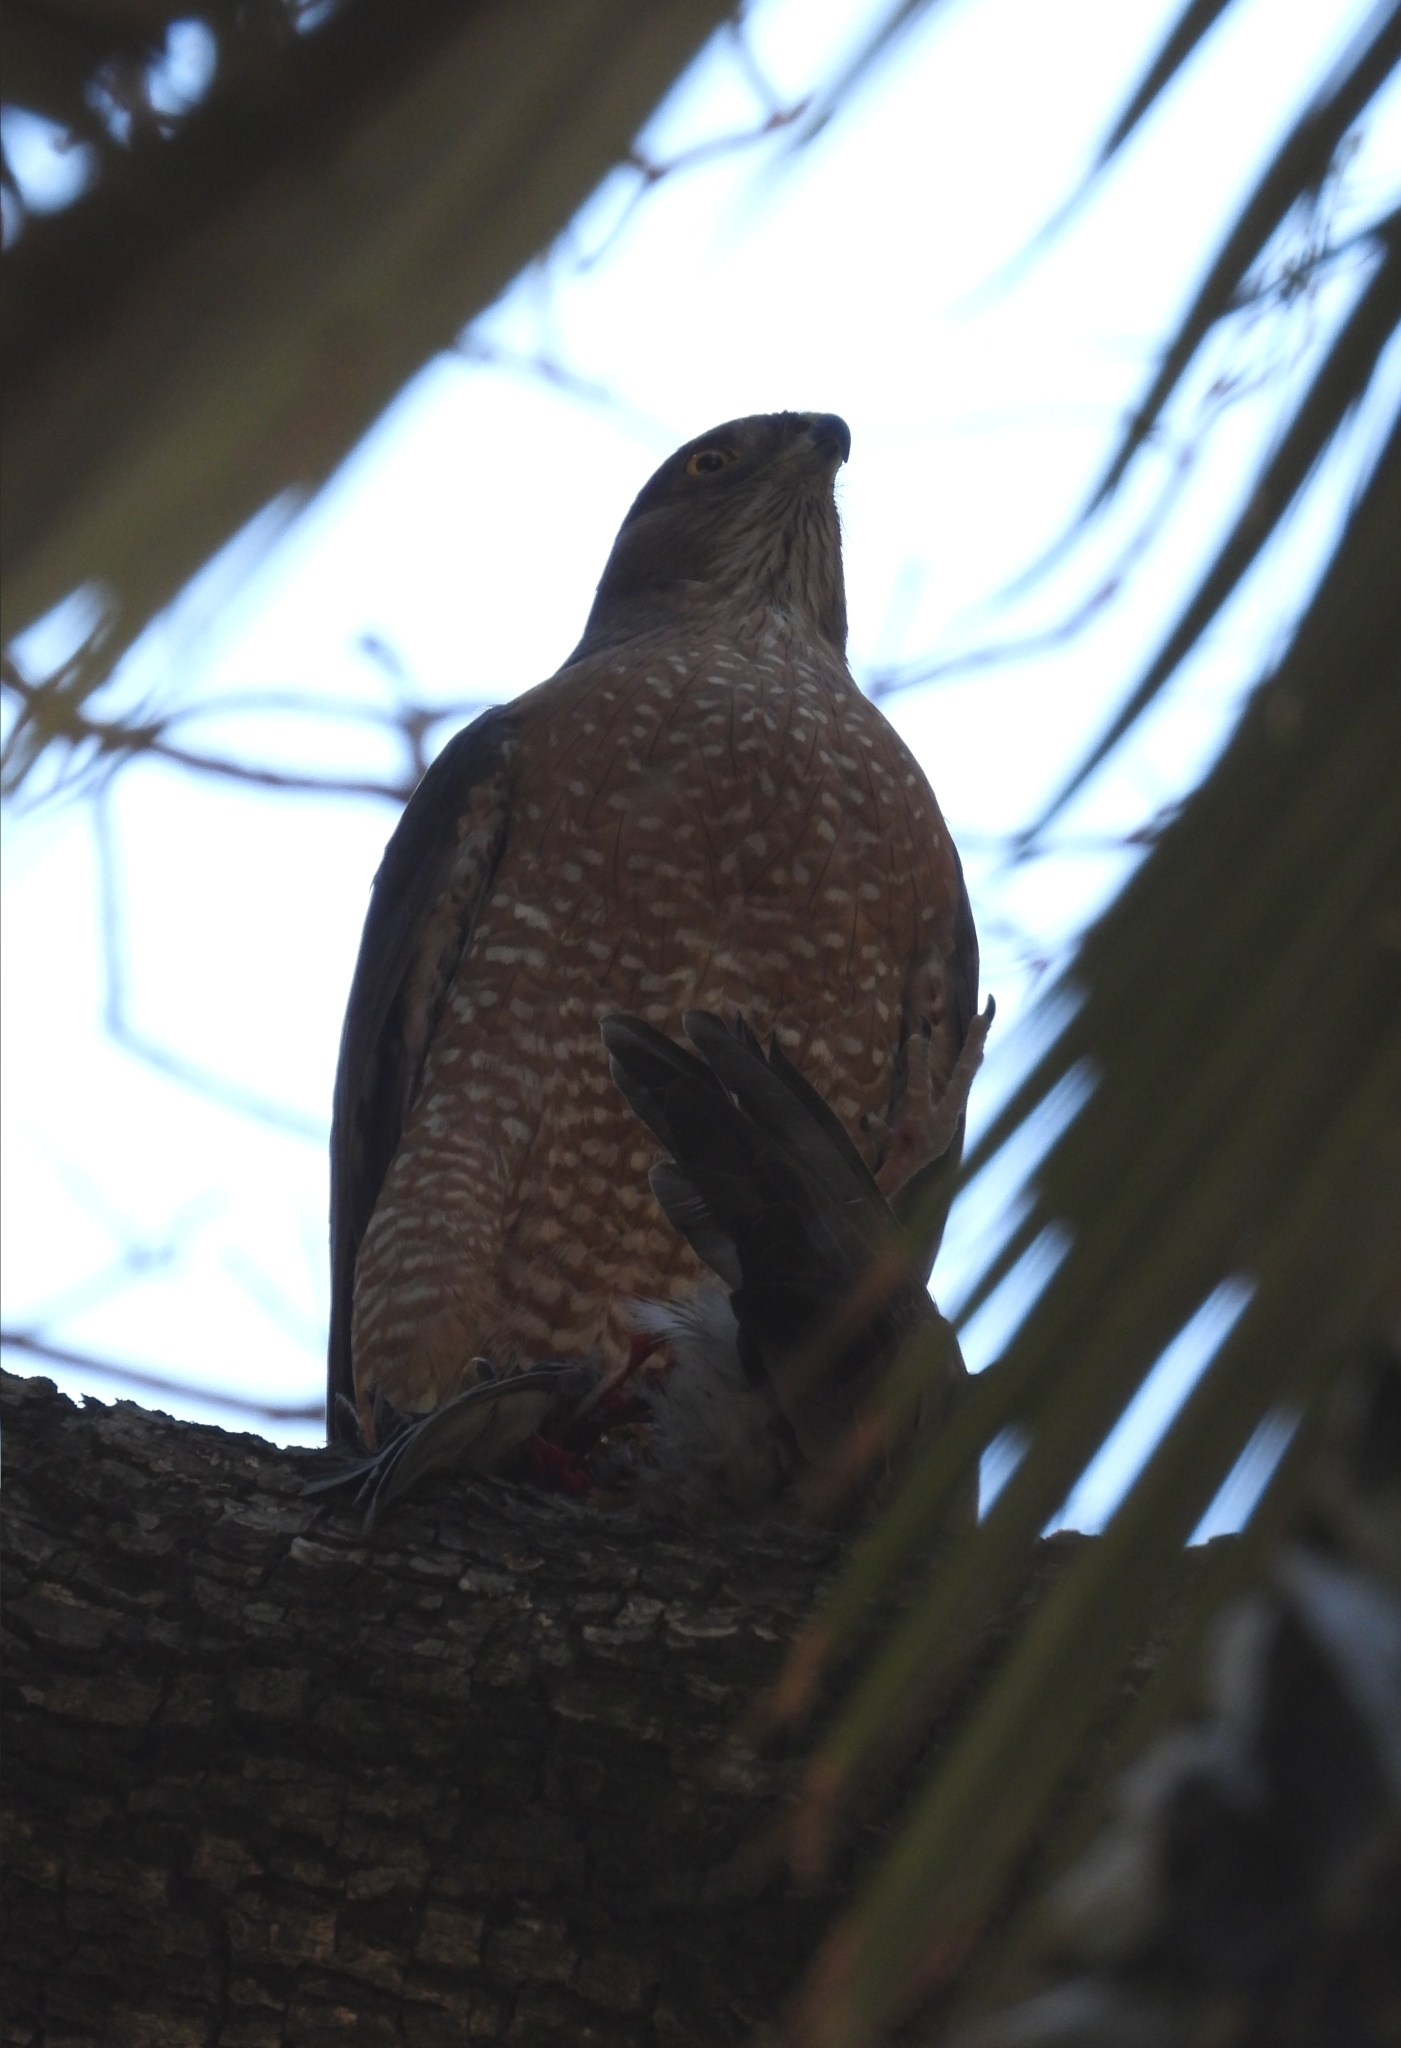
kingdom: Animalia
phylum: Chordata
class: Aves
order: Accipitriformes
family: Accipitridae
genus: Accipiter
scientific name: Accipiter cooperii
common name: Cooper's hawk
